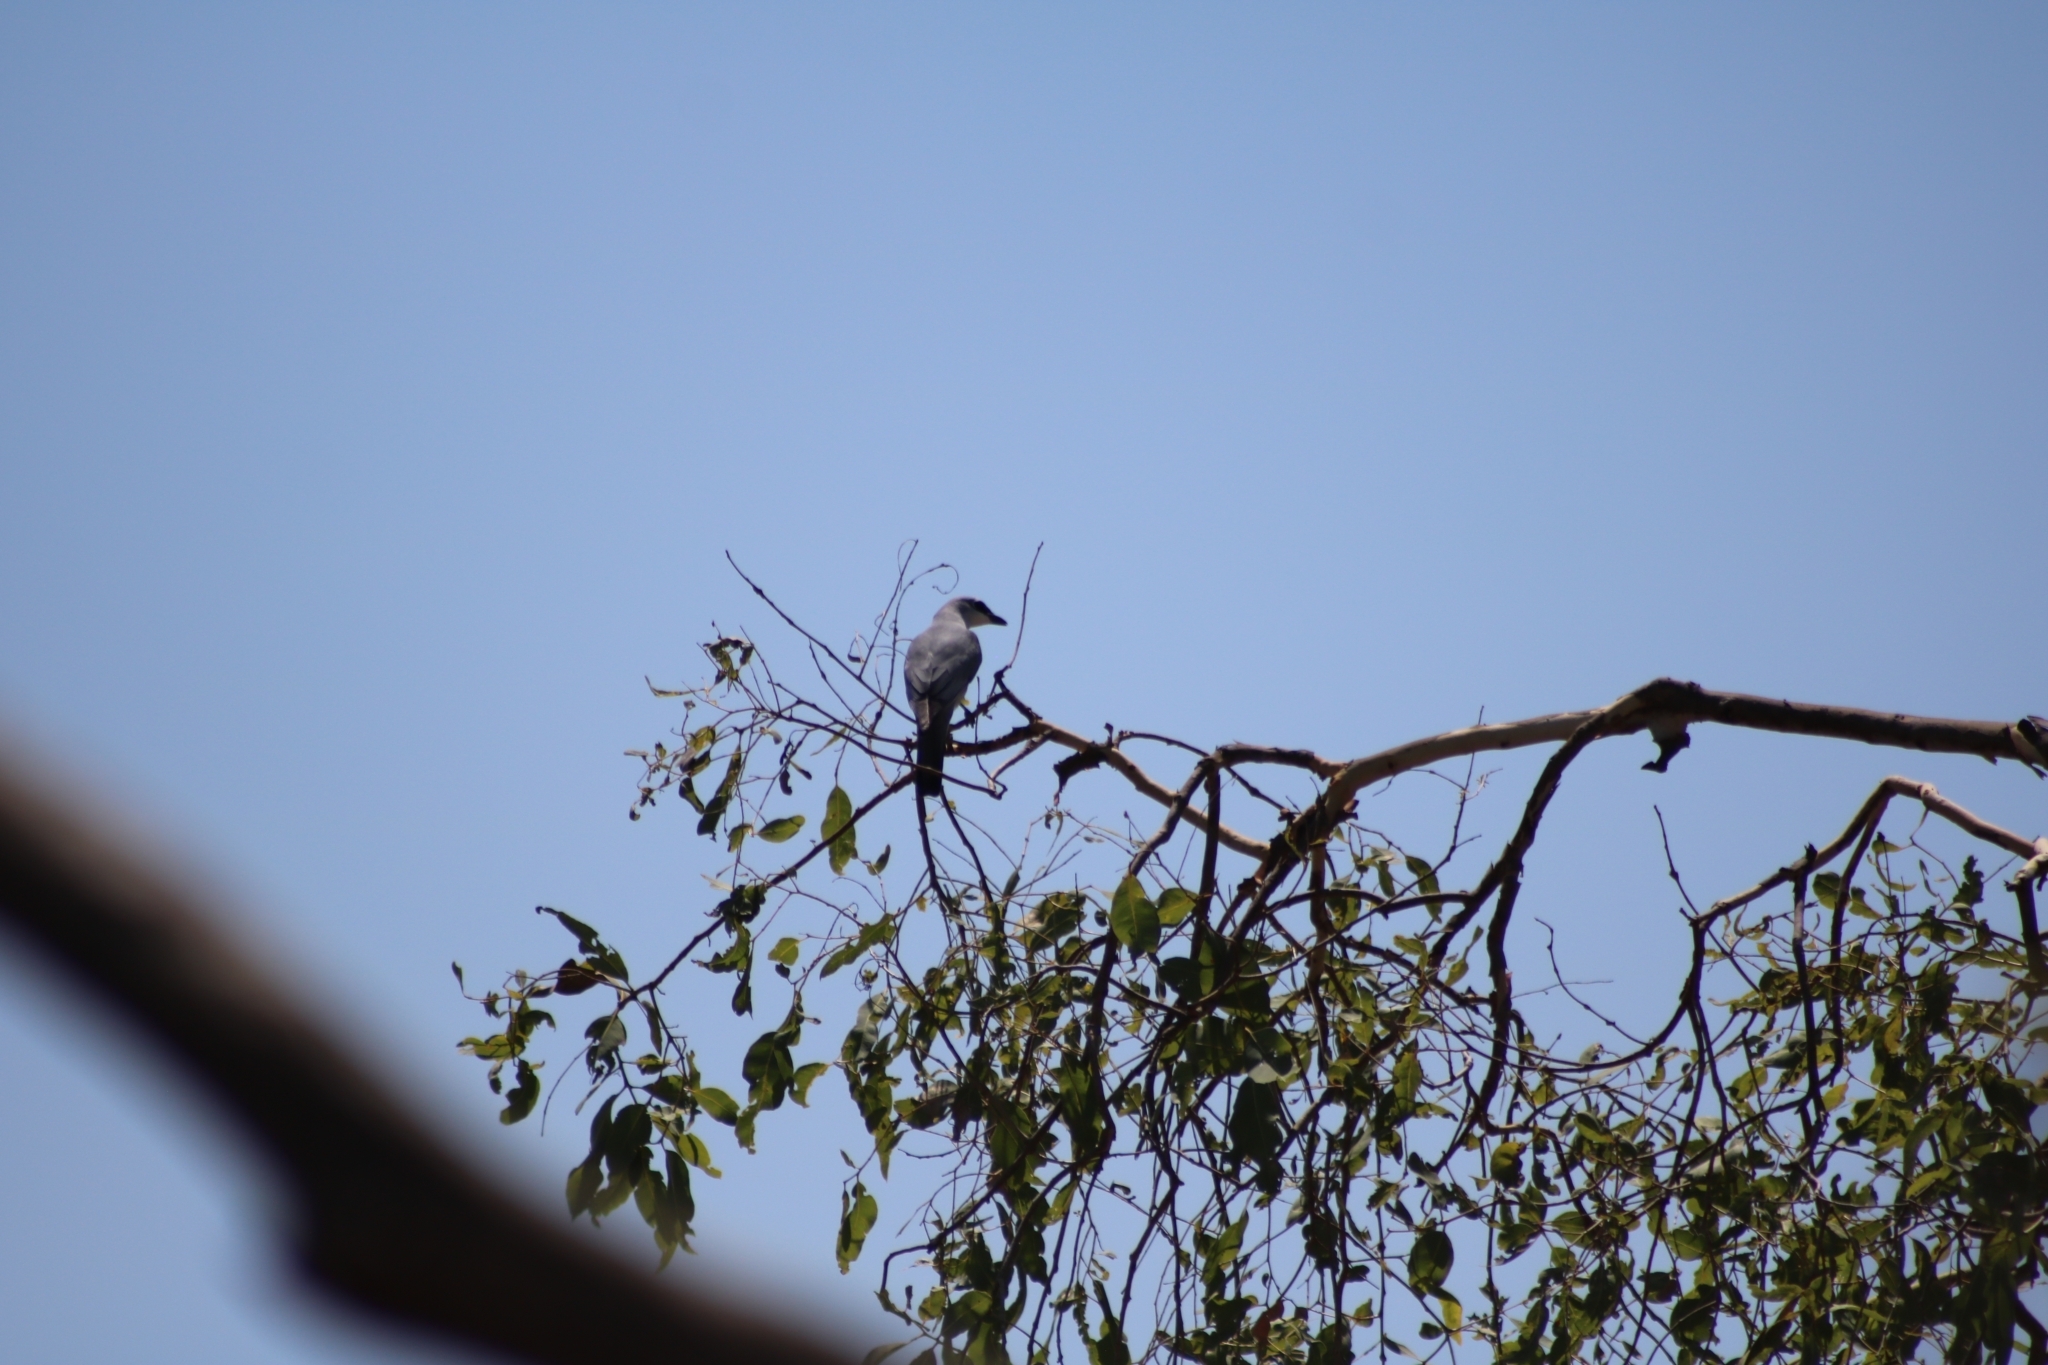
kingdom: Animalia
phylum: Chordata
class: Aves
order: Passeriformes
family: Campephagidae
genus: Coracina
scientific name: Coracina papuensis
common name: White-bellied cuckooshrike
